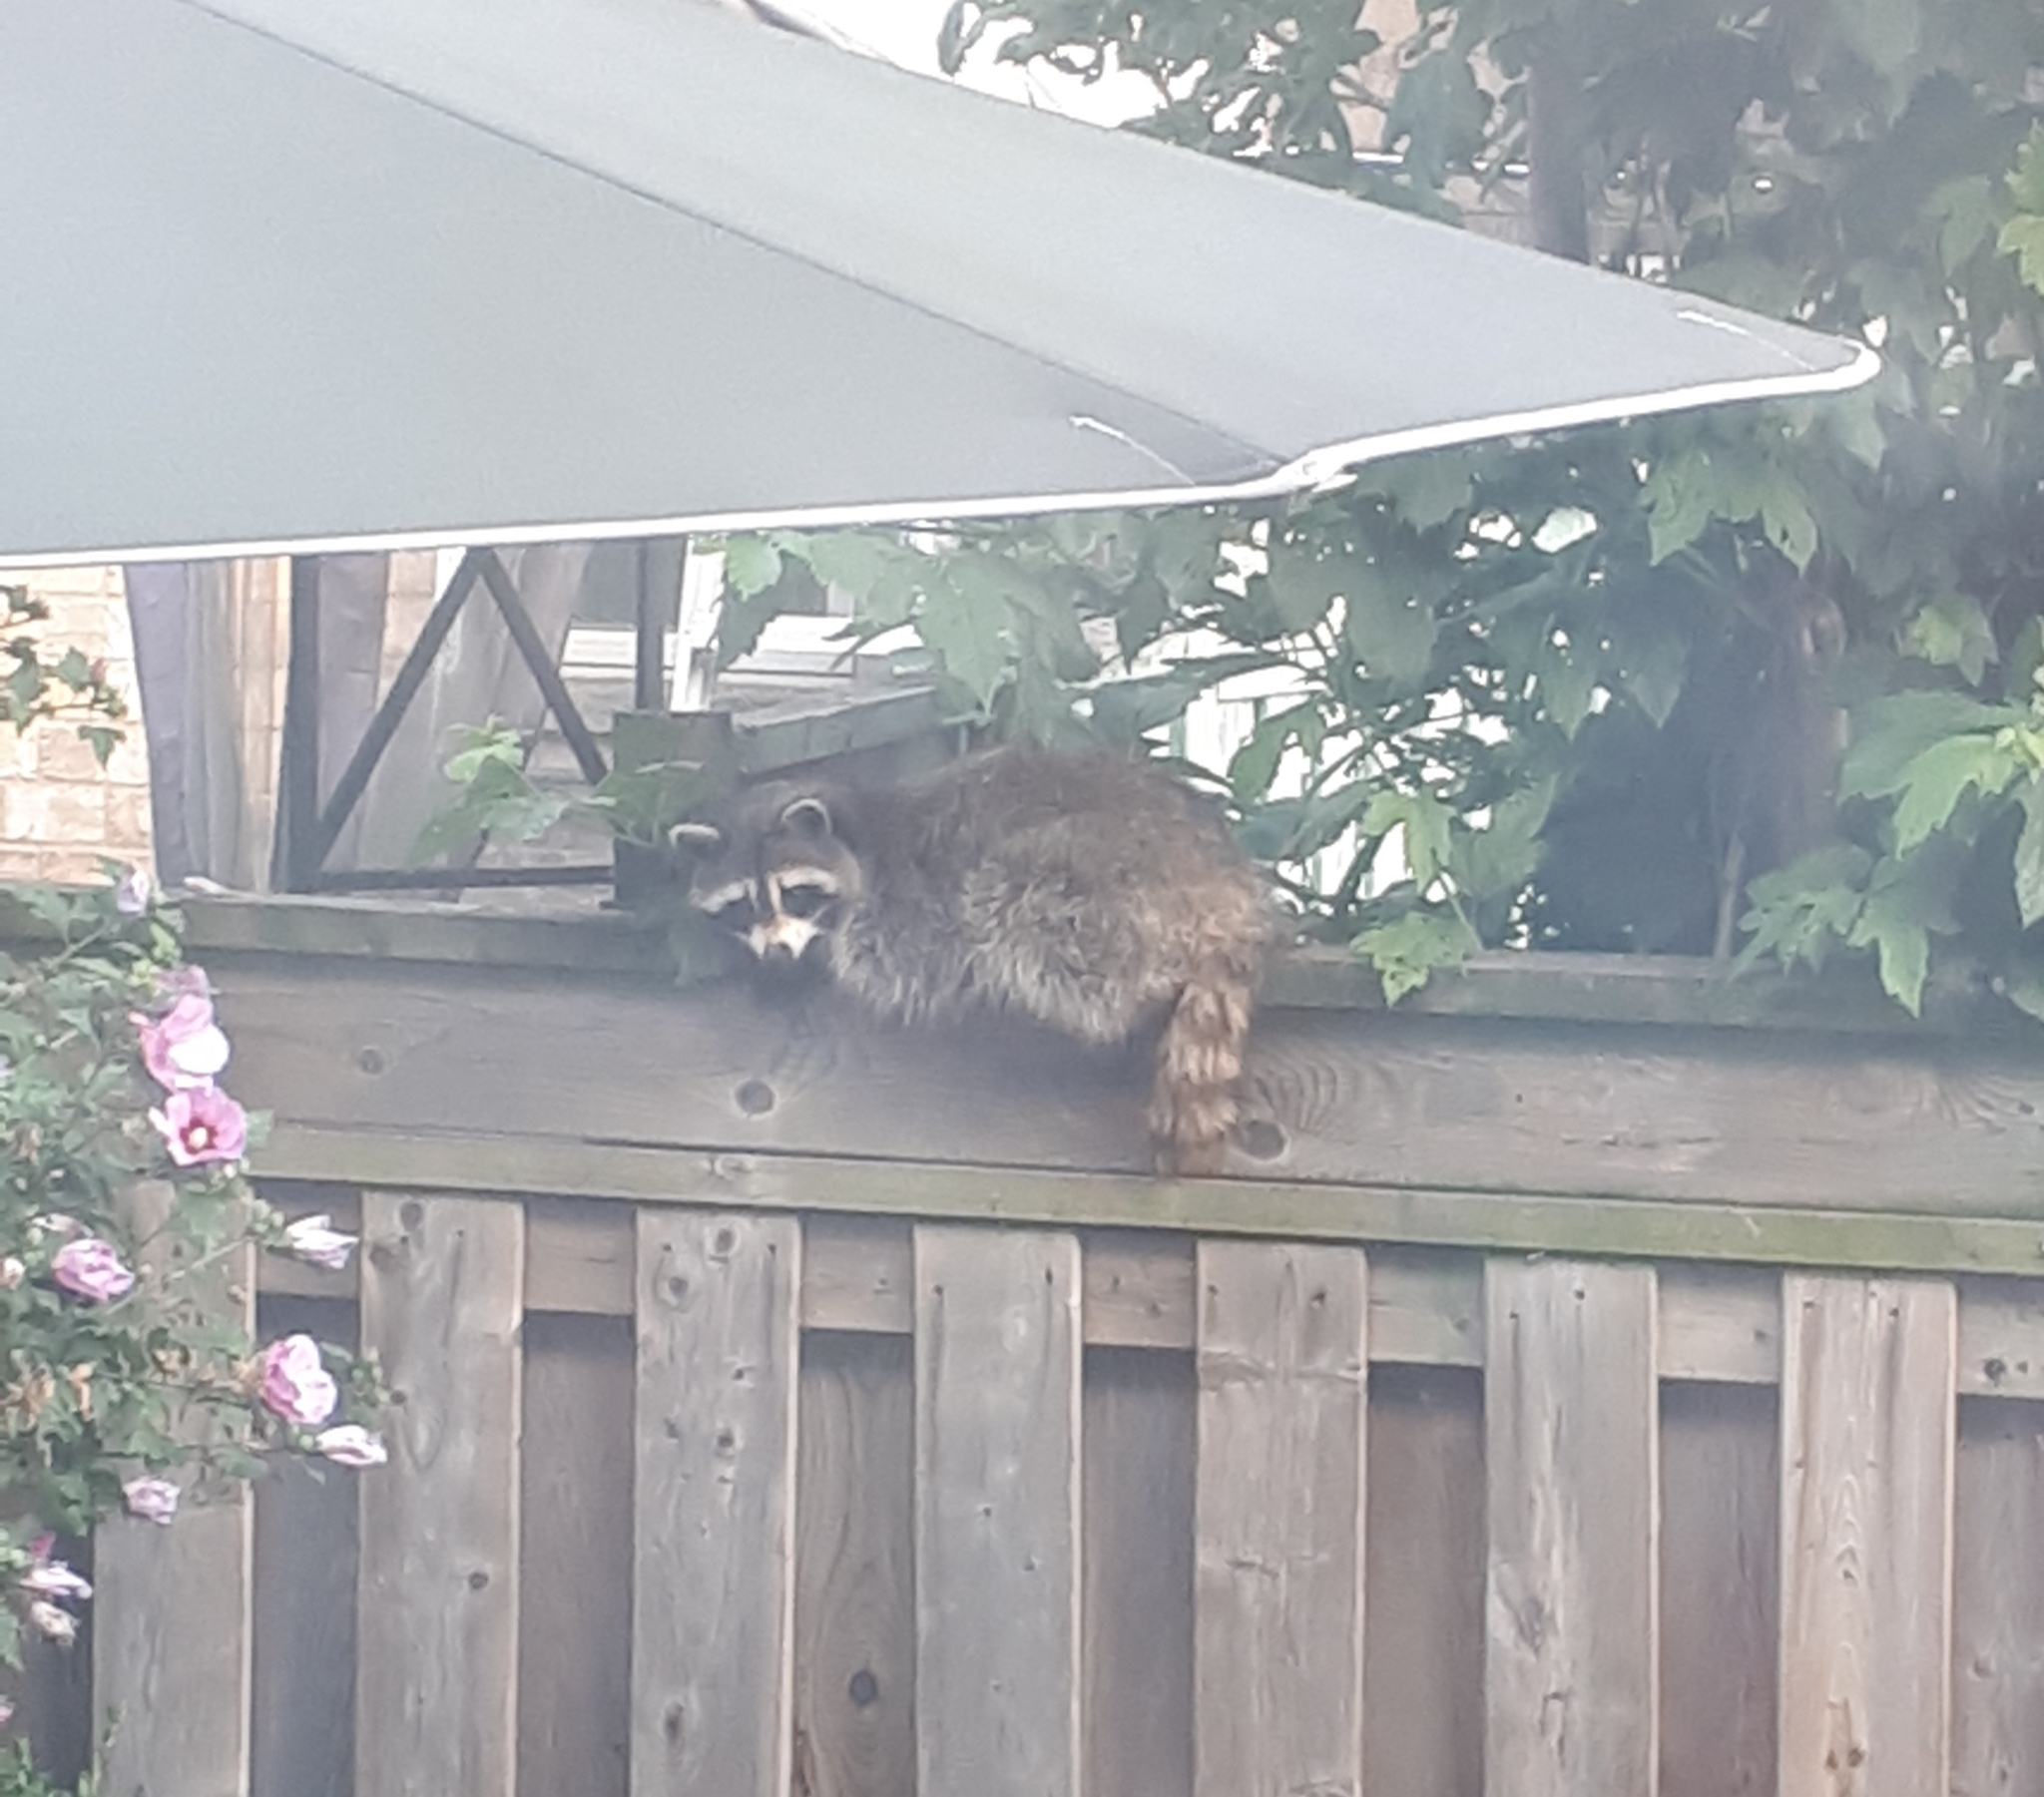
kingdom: Animalia
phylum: Chordata
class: Mammalia
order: Carnivora
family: Procyonidae
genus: Procyon
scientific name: Procyon lotor
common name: Raccoon
